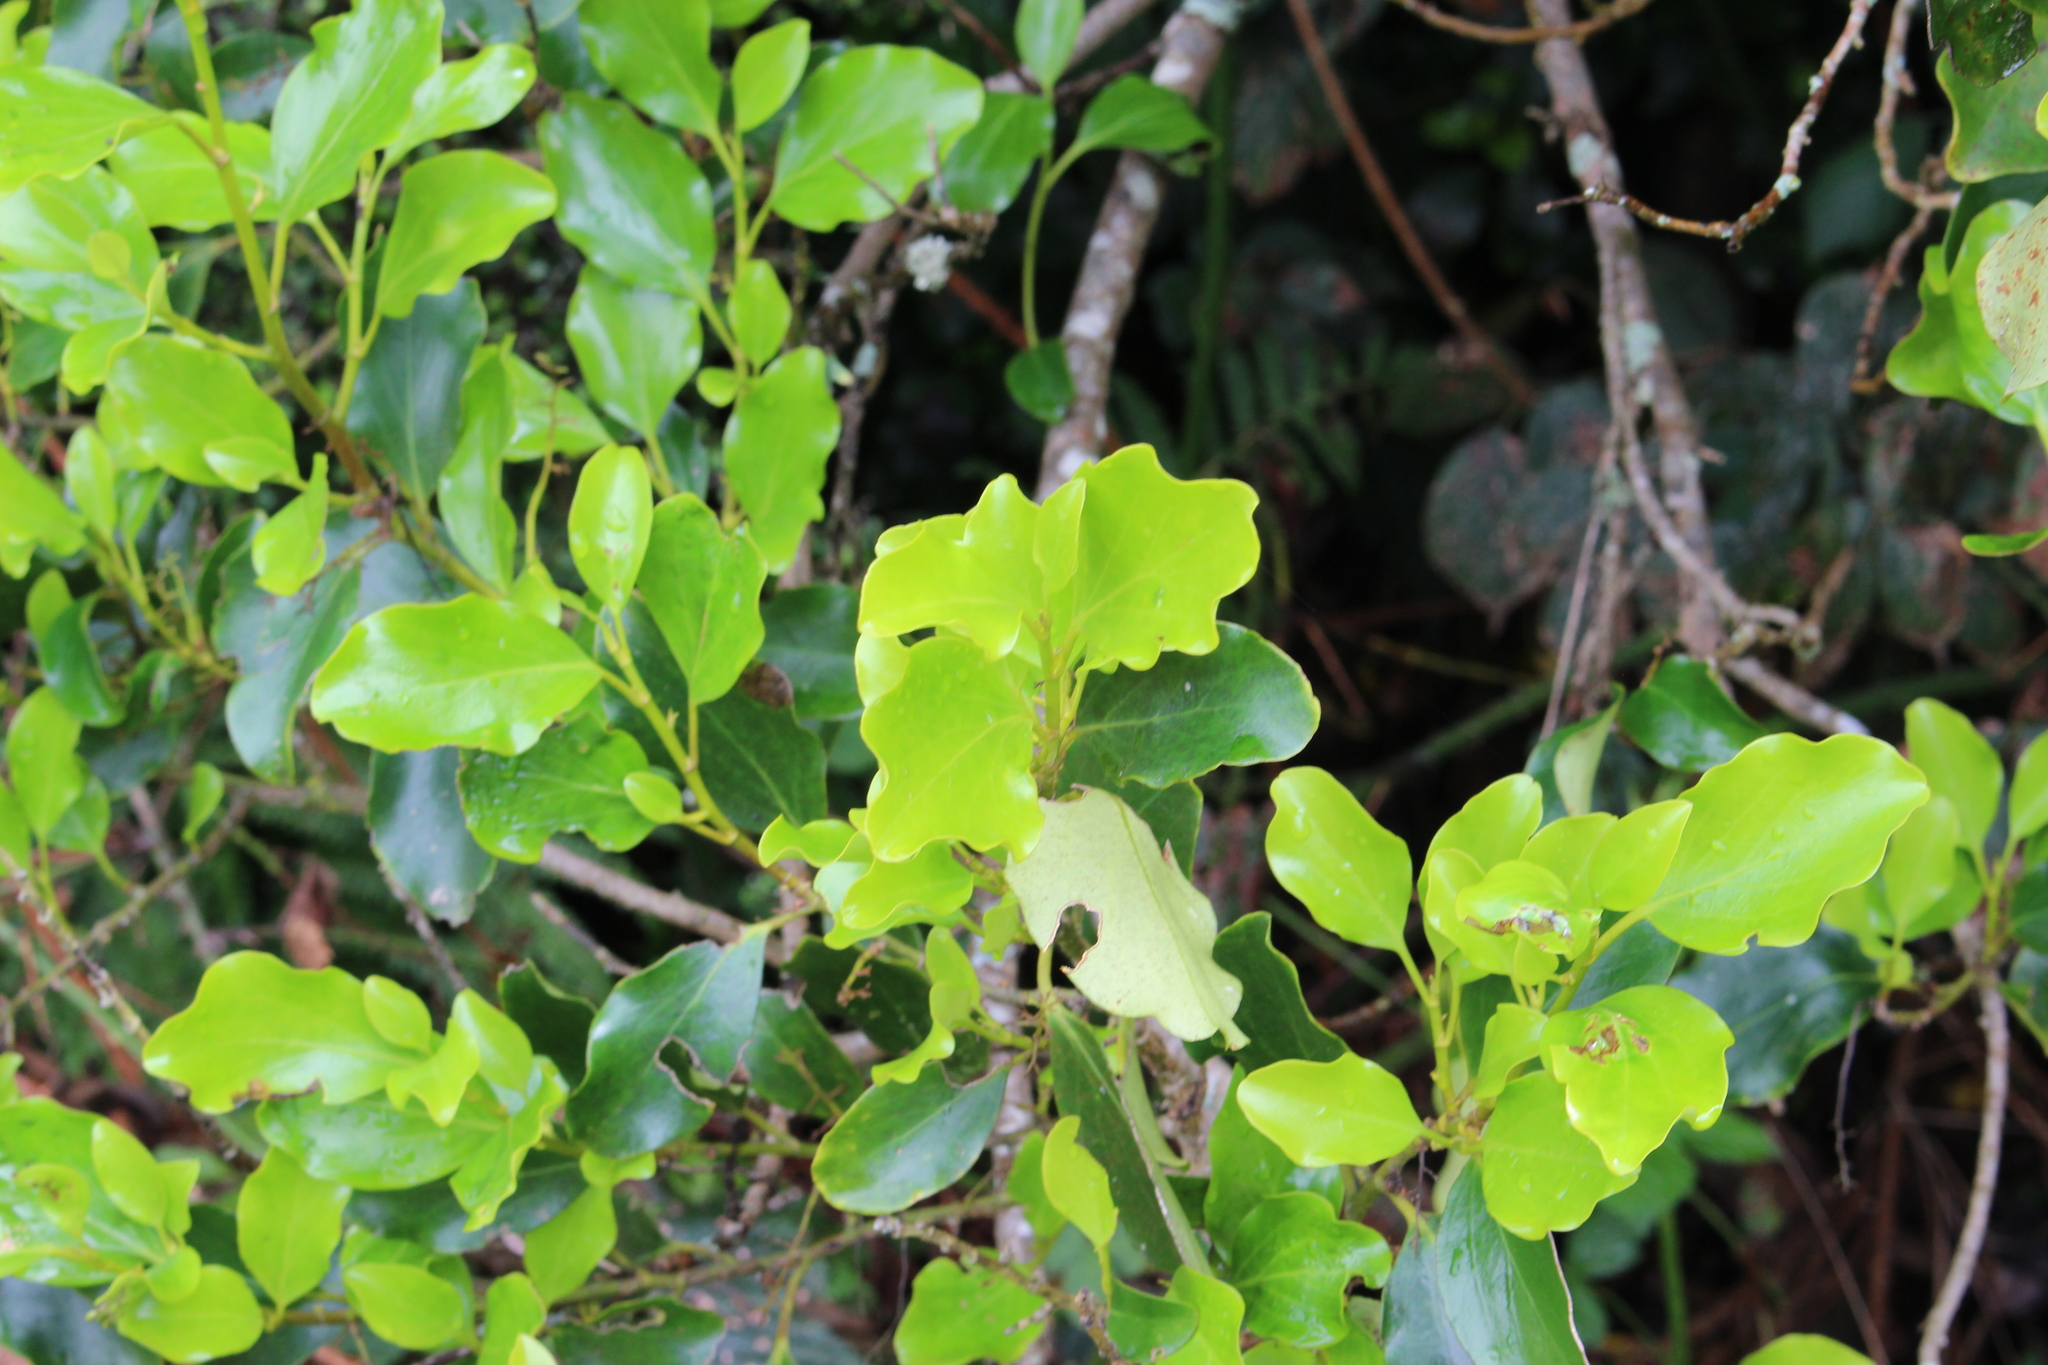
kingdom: Plantae
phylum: Tracheophyta
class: Magnoliopsida
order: Apiales
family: Griseliniaceae
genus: Griselinia
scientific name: Griselinia littoralis
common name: New zealand broadleaf
